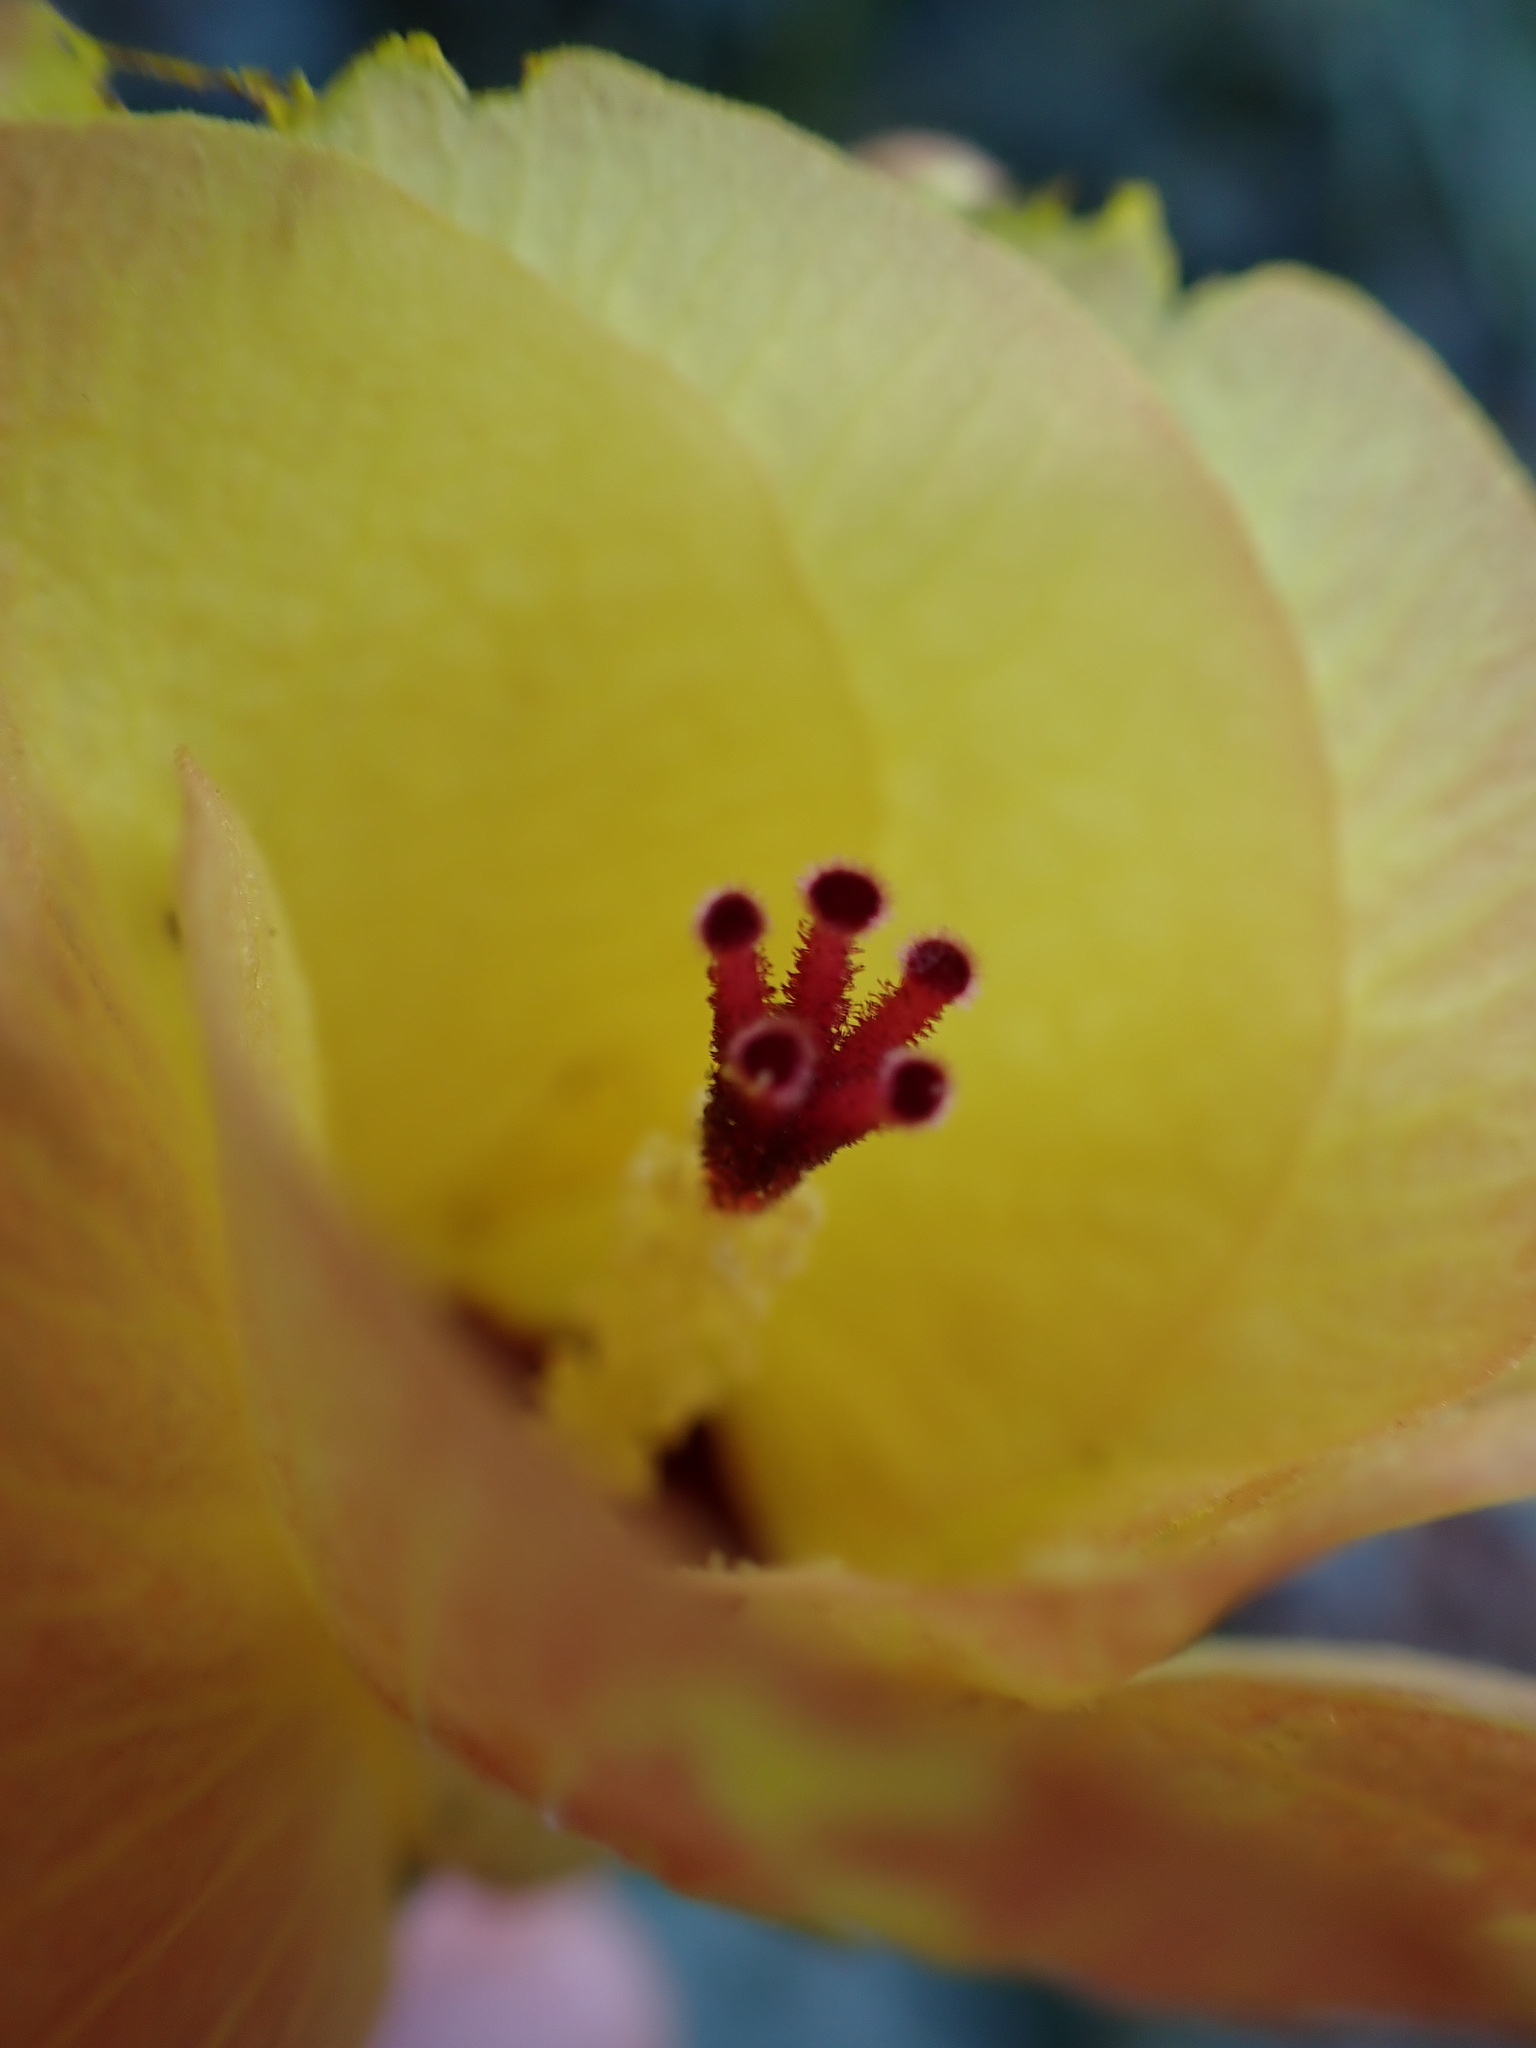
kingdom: Plantae
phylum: Tracheophyta
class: Magnoliopsida
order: Malvales
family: Malvaceae
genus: Talipariti
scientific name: Talipariti tiliaceum
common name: Sea hibiscus
